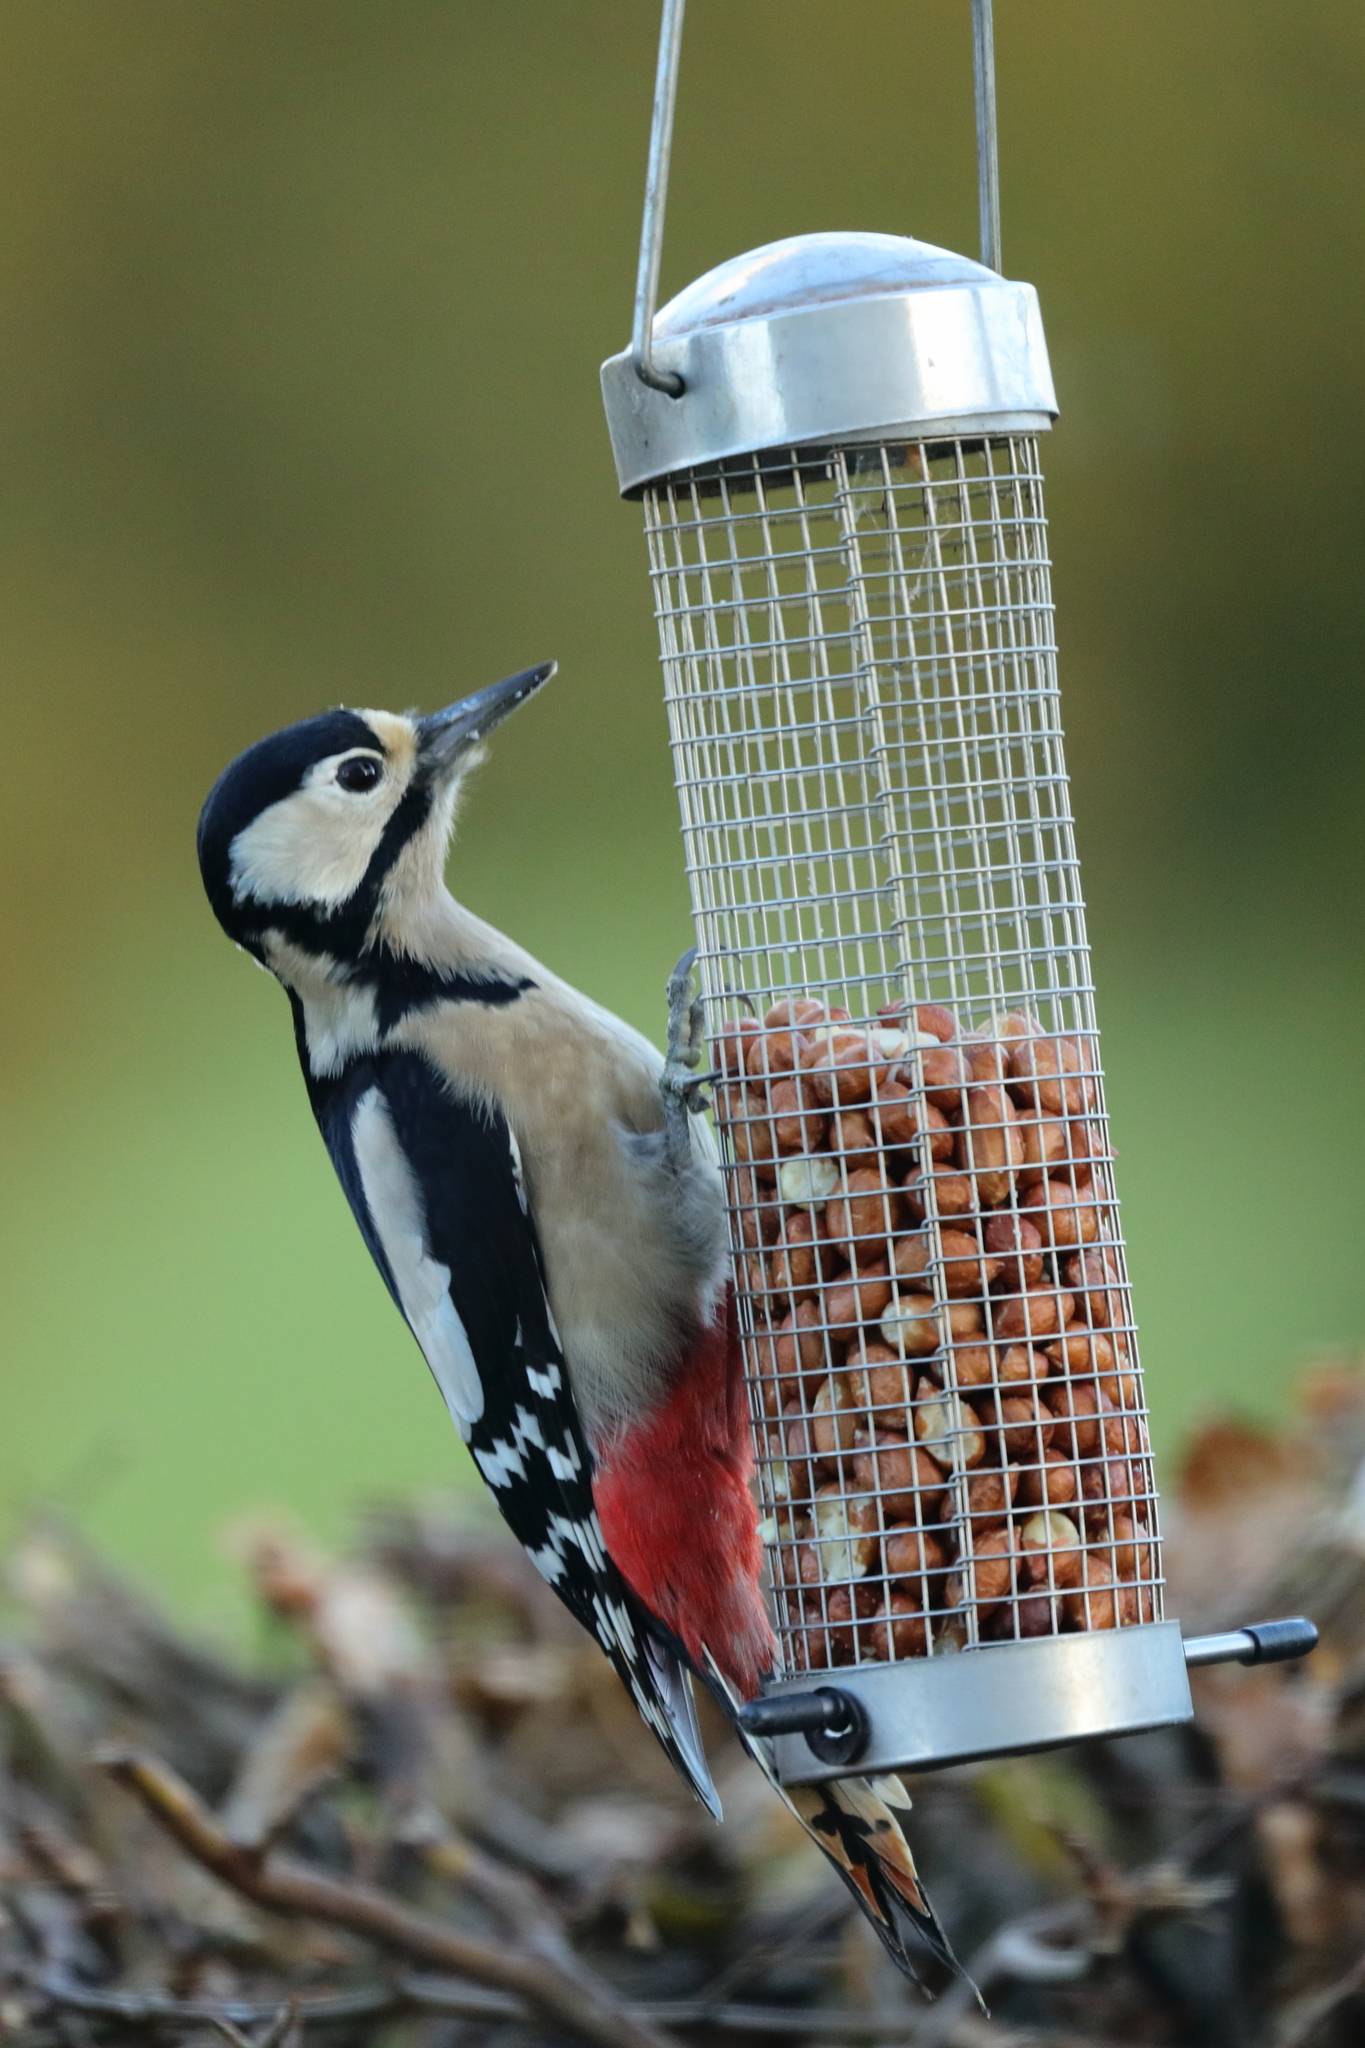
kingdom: Animalia
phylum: Chordata
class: Aves
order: Piciformes
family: Picidae
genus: Dendrocopos
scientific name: Dendrocopos major
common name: Great spotted woodpecker
